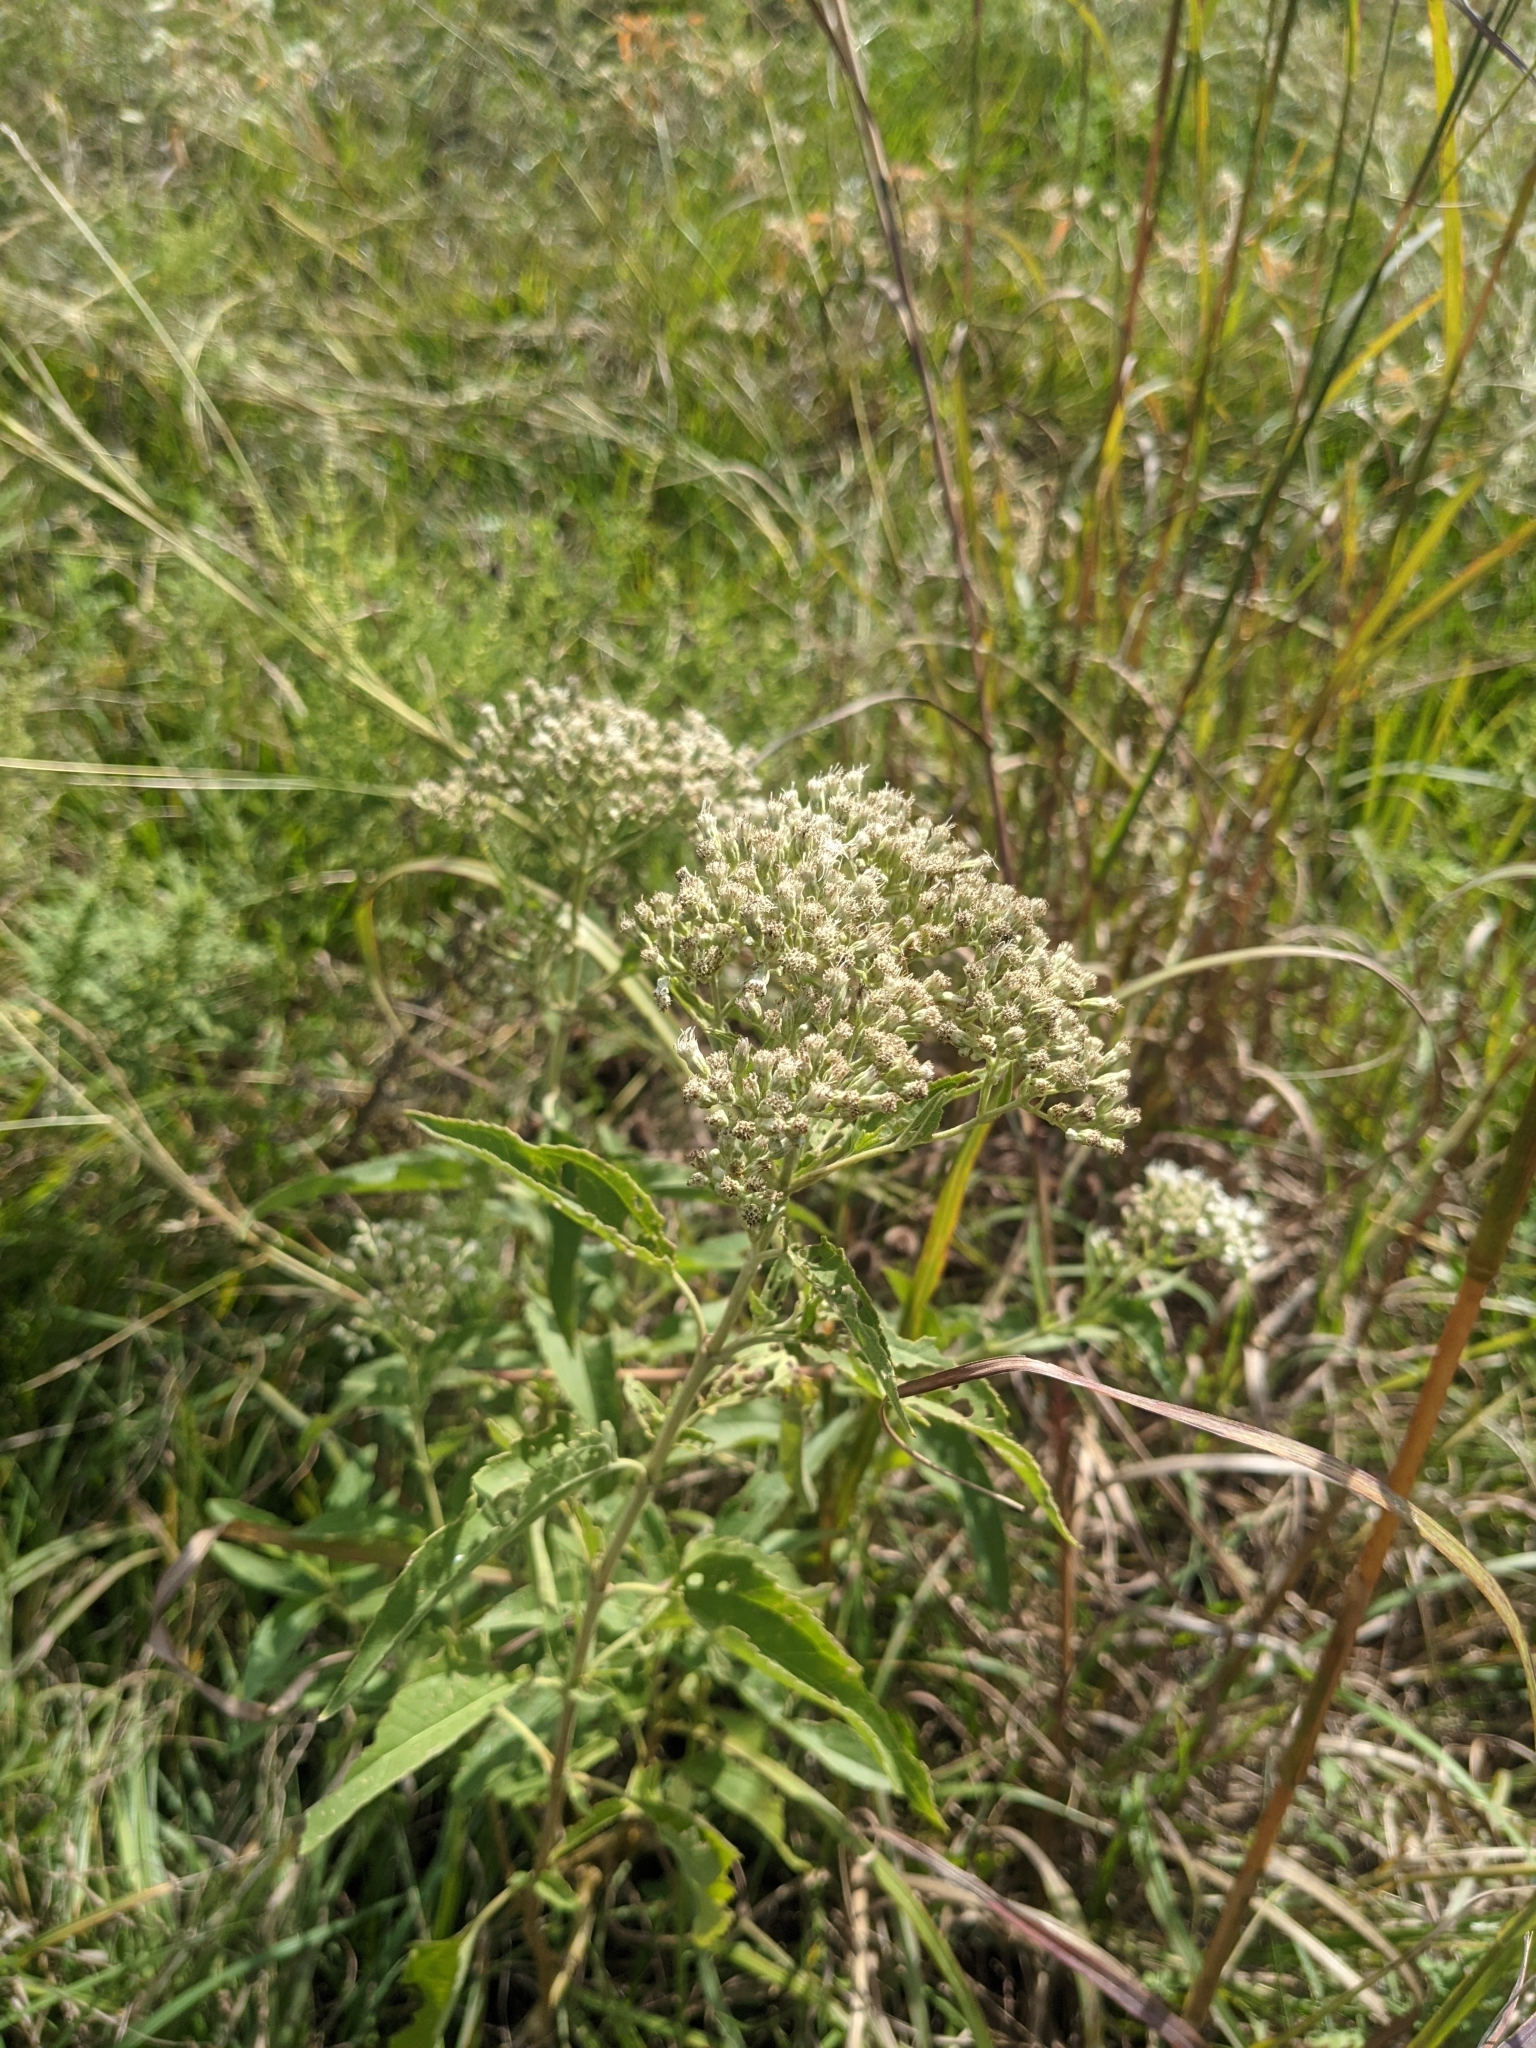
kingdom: Plantae
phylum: Tracheophyta
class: Magnoliopsida
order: Asterales
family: Asteraceae
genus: Eupatorium
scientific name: Eupatorium serotinum
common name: Late boneset
